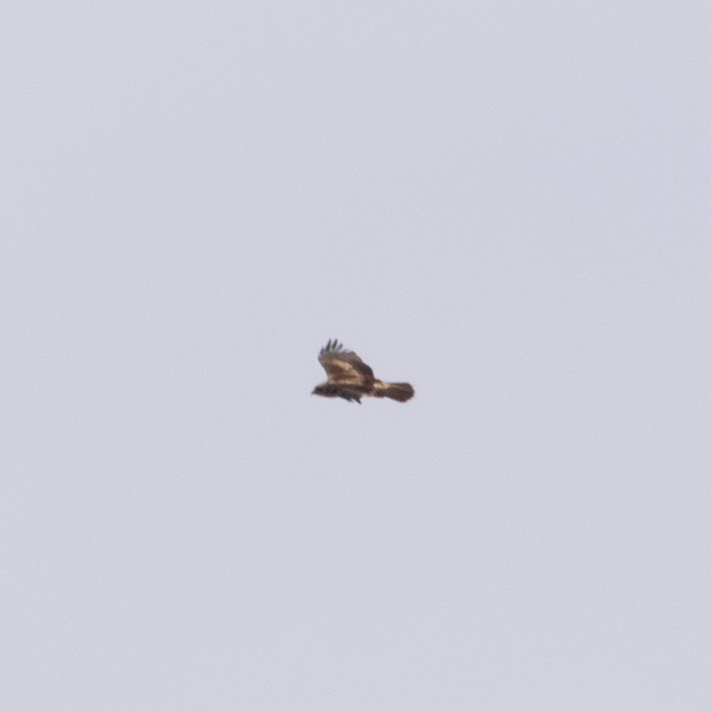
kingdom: Animalia
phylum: Chordata
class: Aves
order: Accipitriformes
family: Accipitridae
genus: Hieraaetus
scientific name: Hieraaetus pennatus
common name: Booted eagle
